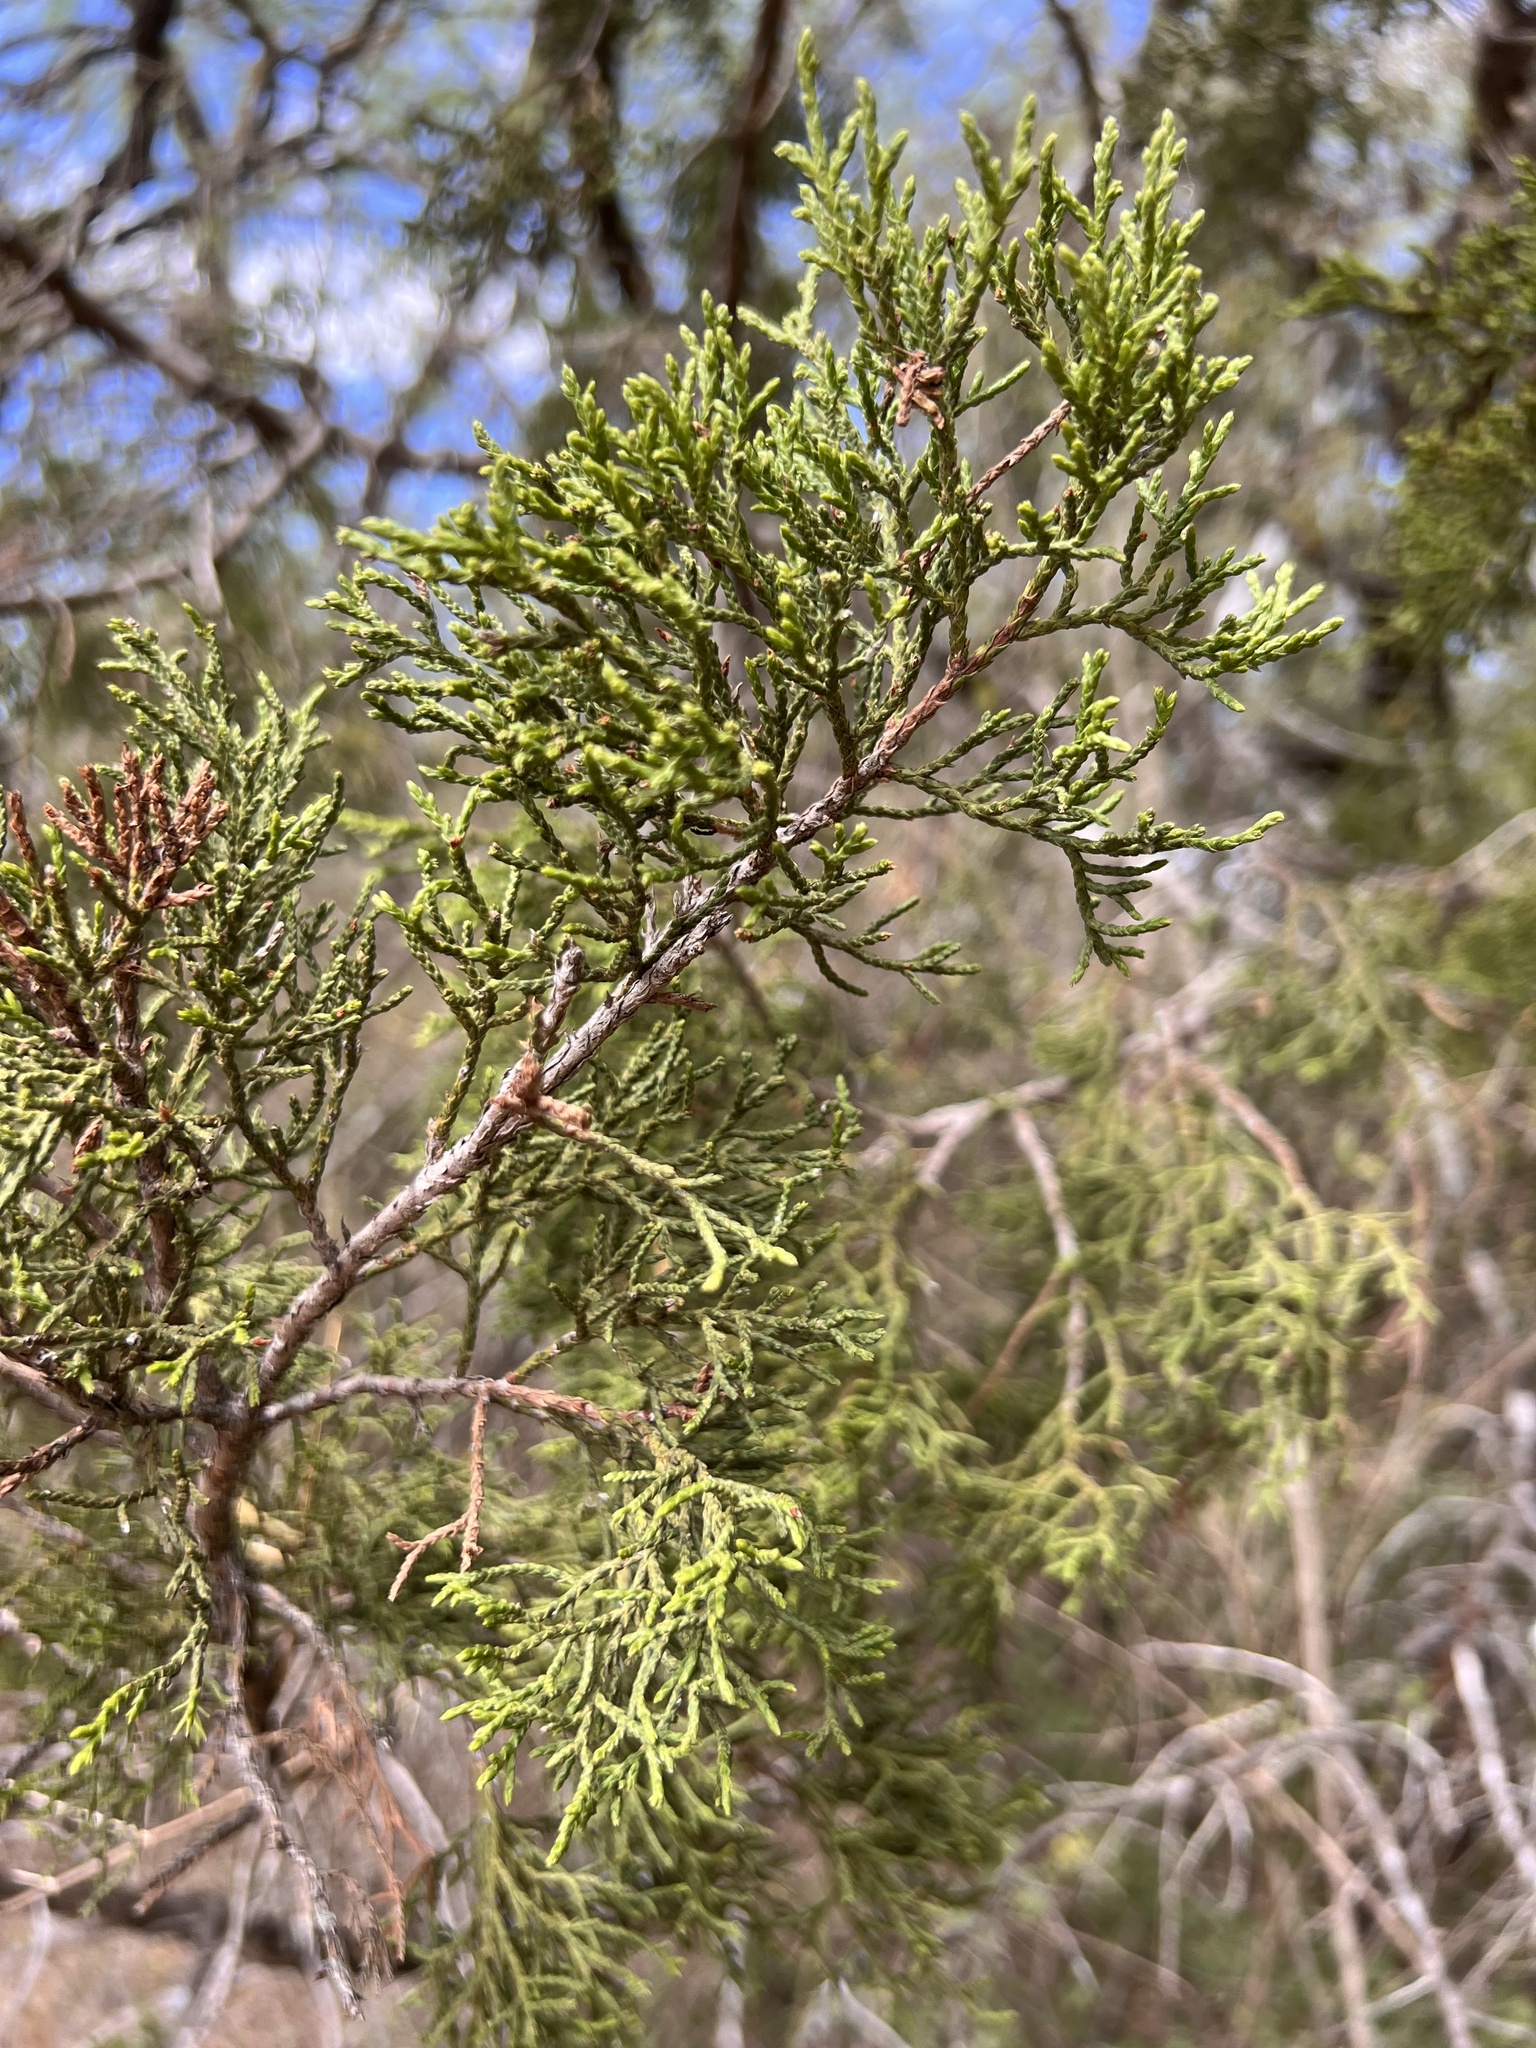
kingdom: Plantae
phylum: Tracheophyta
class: Pinopsida
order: Pinales
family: Cupressaceae
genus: Juniperus
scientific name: Juniperus ashei
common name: Mexican juniper
